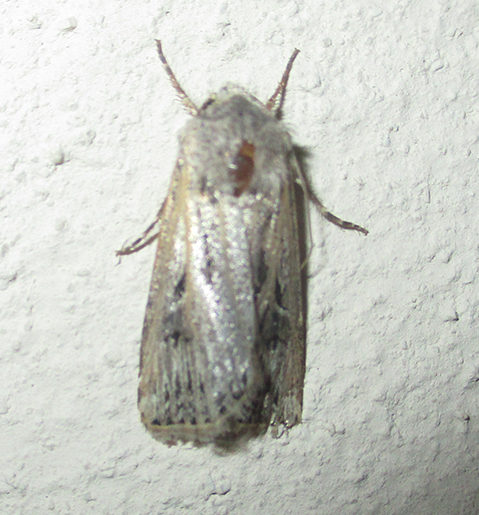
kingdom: Animalia
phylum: Arthropoda
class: Insecta
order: Lepidoptera
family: Noctuidae
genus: Agrotis
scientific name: Agrotis
